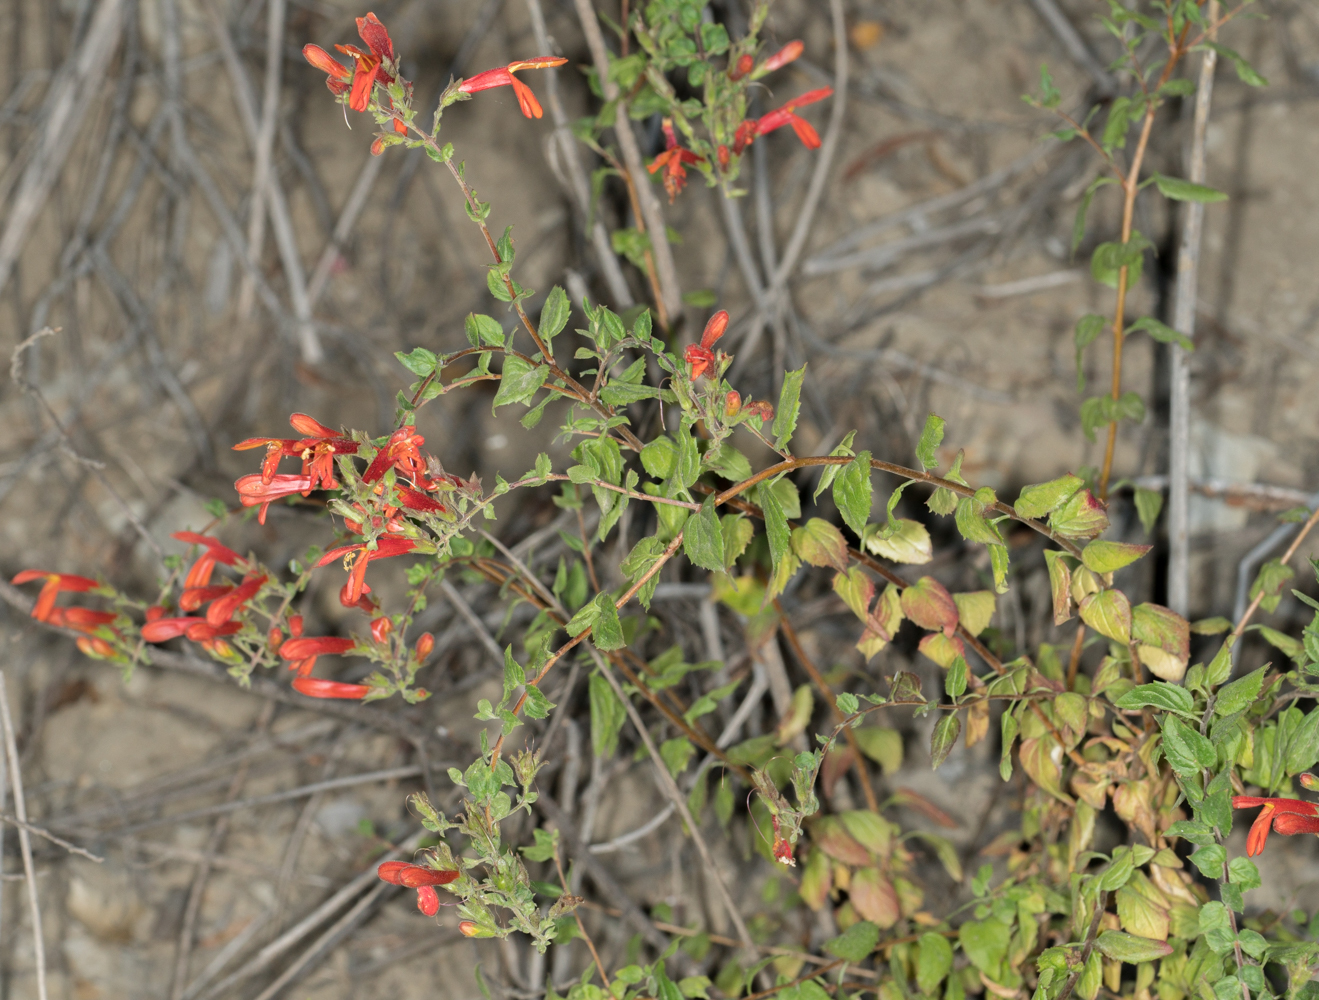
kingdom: Plantae
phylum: Tracheophyta
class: Magnoliopsida
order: Lamiales
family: Plantaginaceae
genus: Keckiella
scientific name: Keckiella cordifolia
